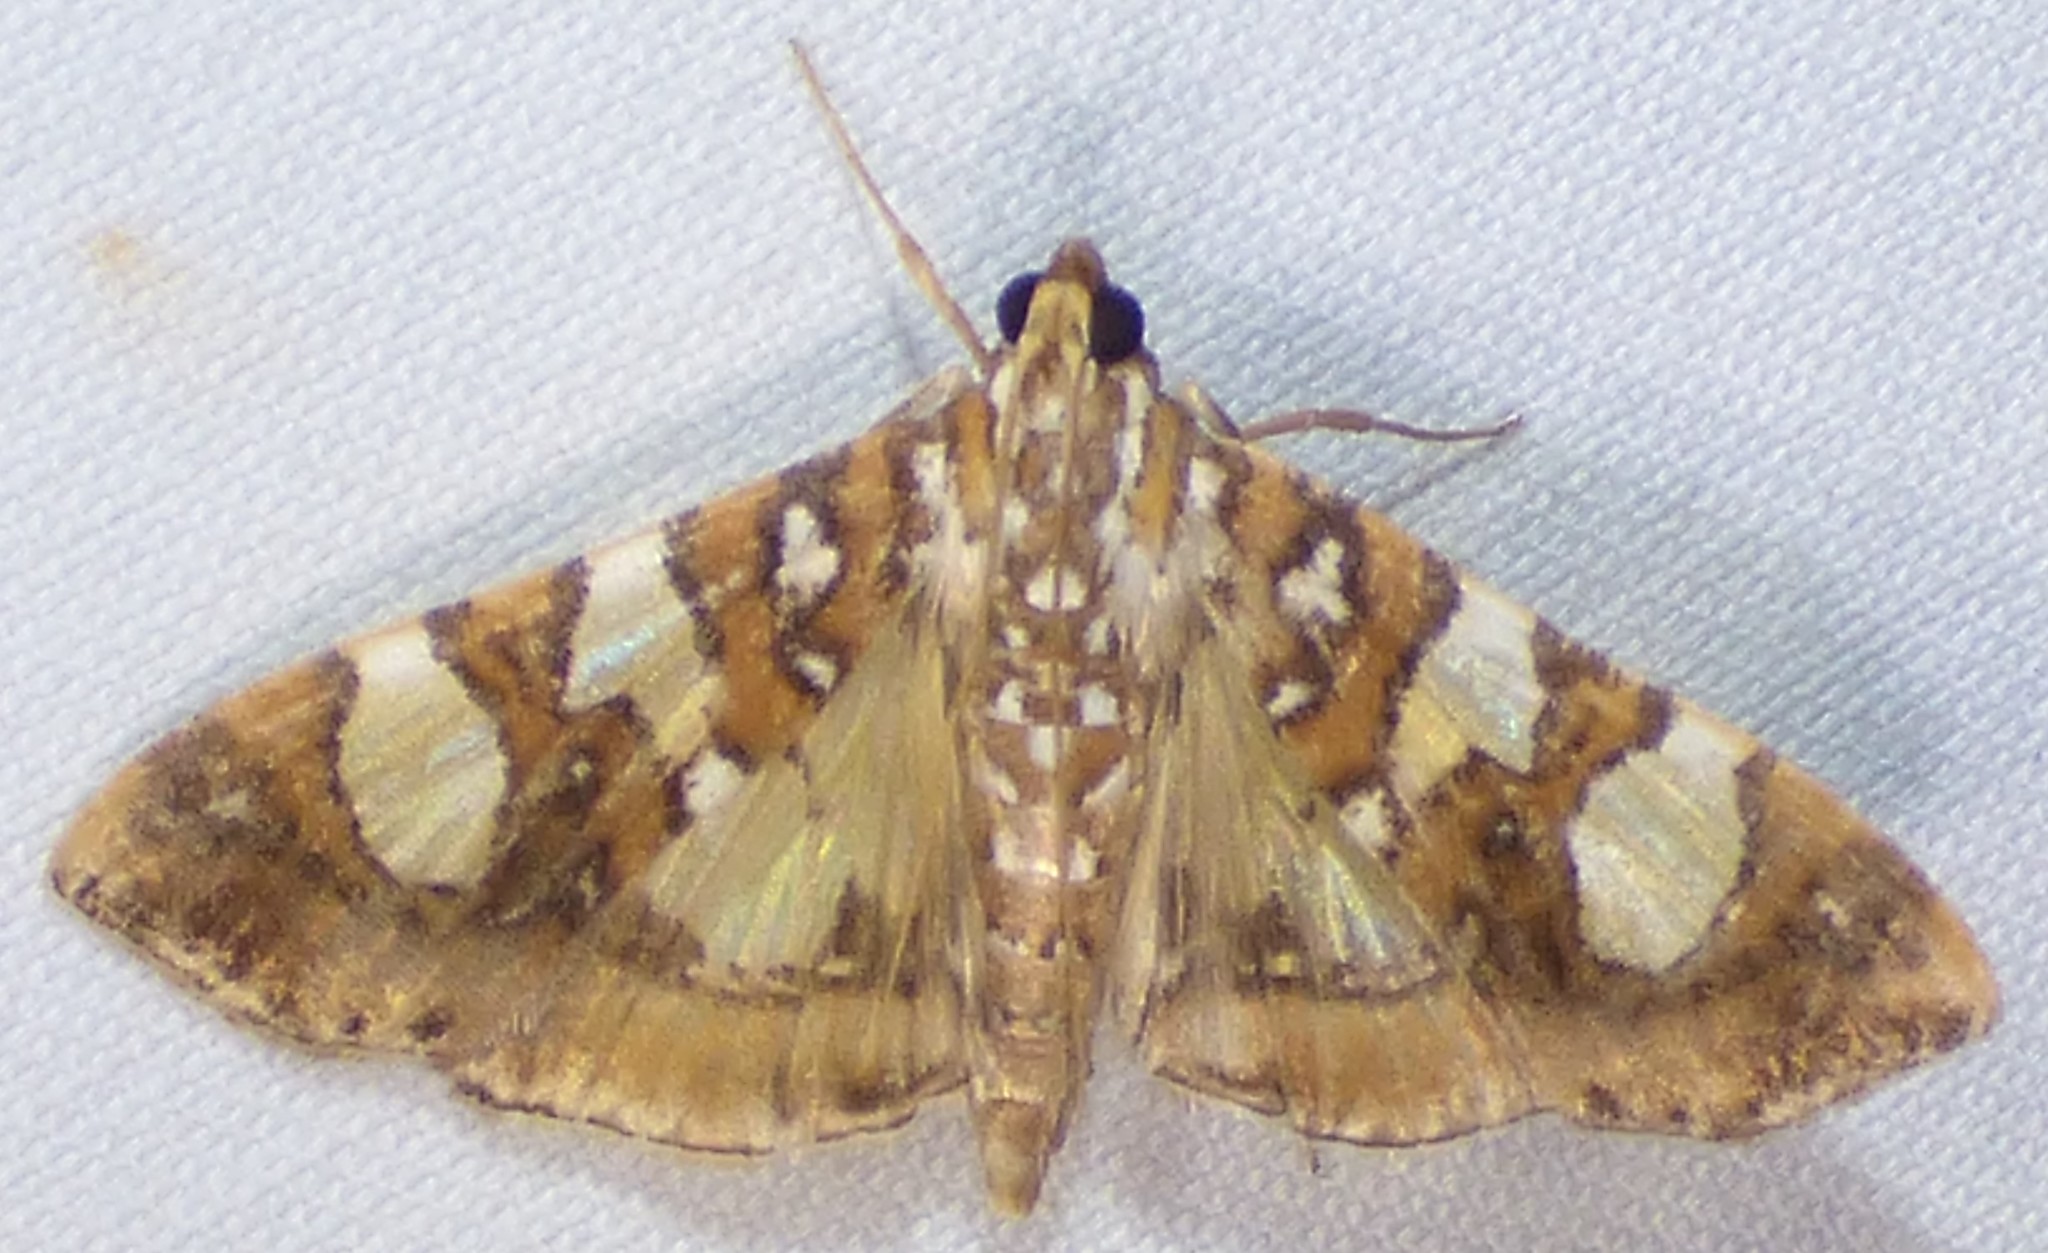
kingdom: Animalia
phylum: Arthropoda
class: Insecta
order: Lepidoptera
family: Crambidae
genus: Glyphodes
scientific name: Glyphodes sibillalis
